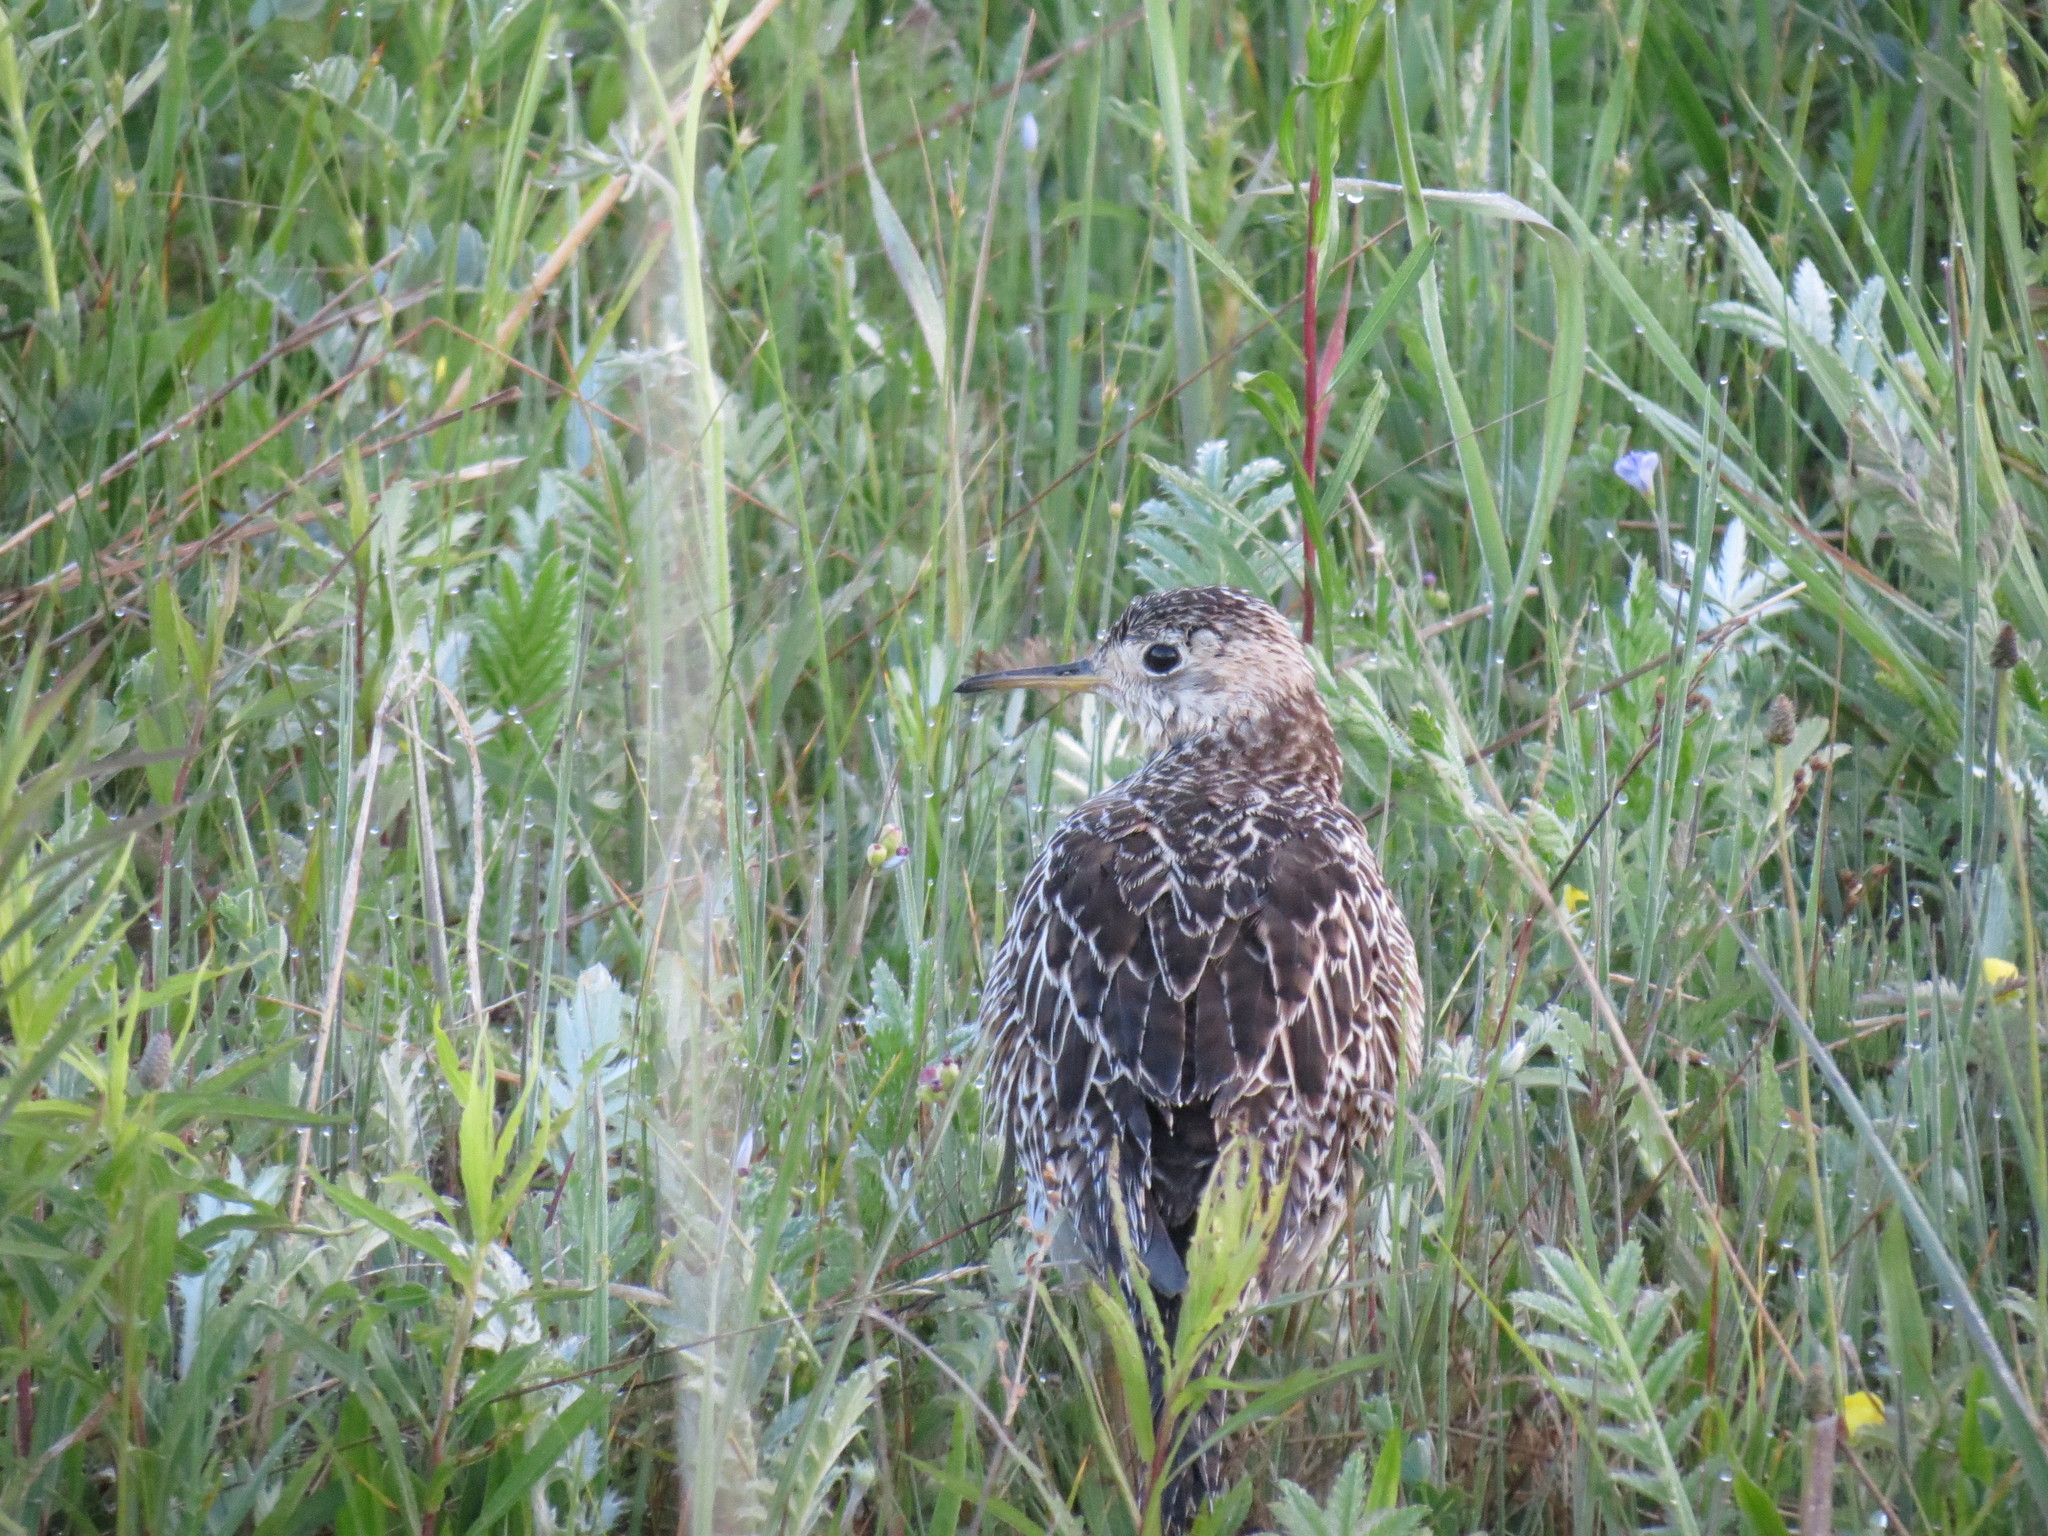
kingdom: Animalia
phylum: Chordata
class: Aves
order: Charadriiformes
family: Scolopacidae
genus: Bartramia
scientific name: Bartramia longicauda
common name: Upland sandpiper
